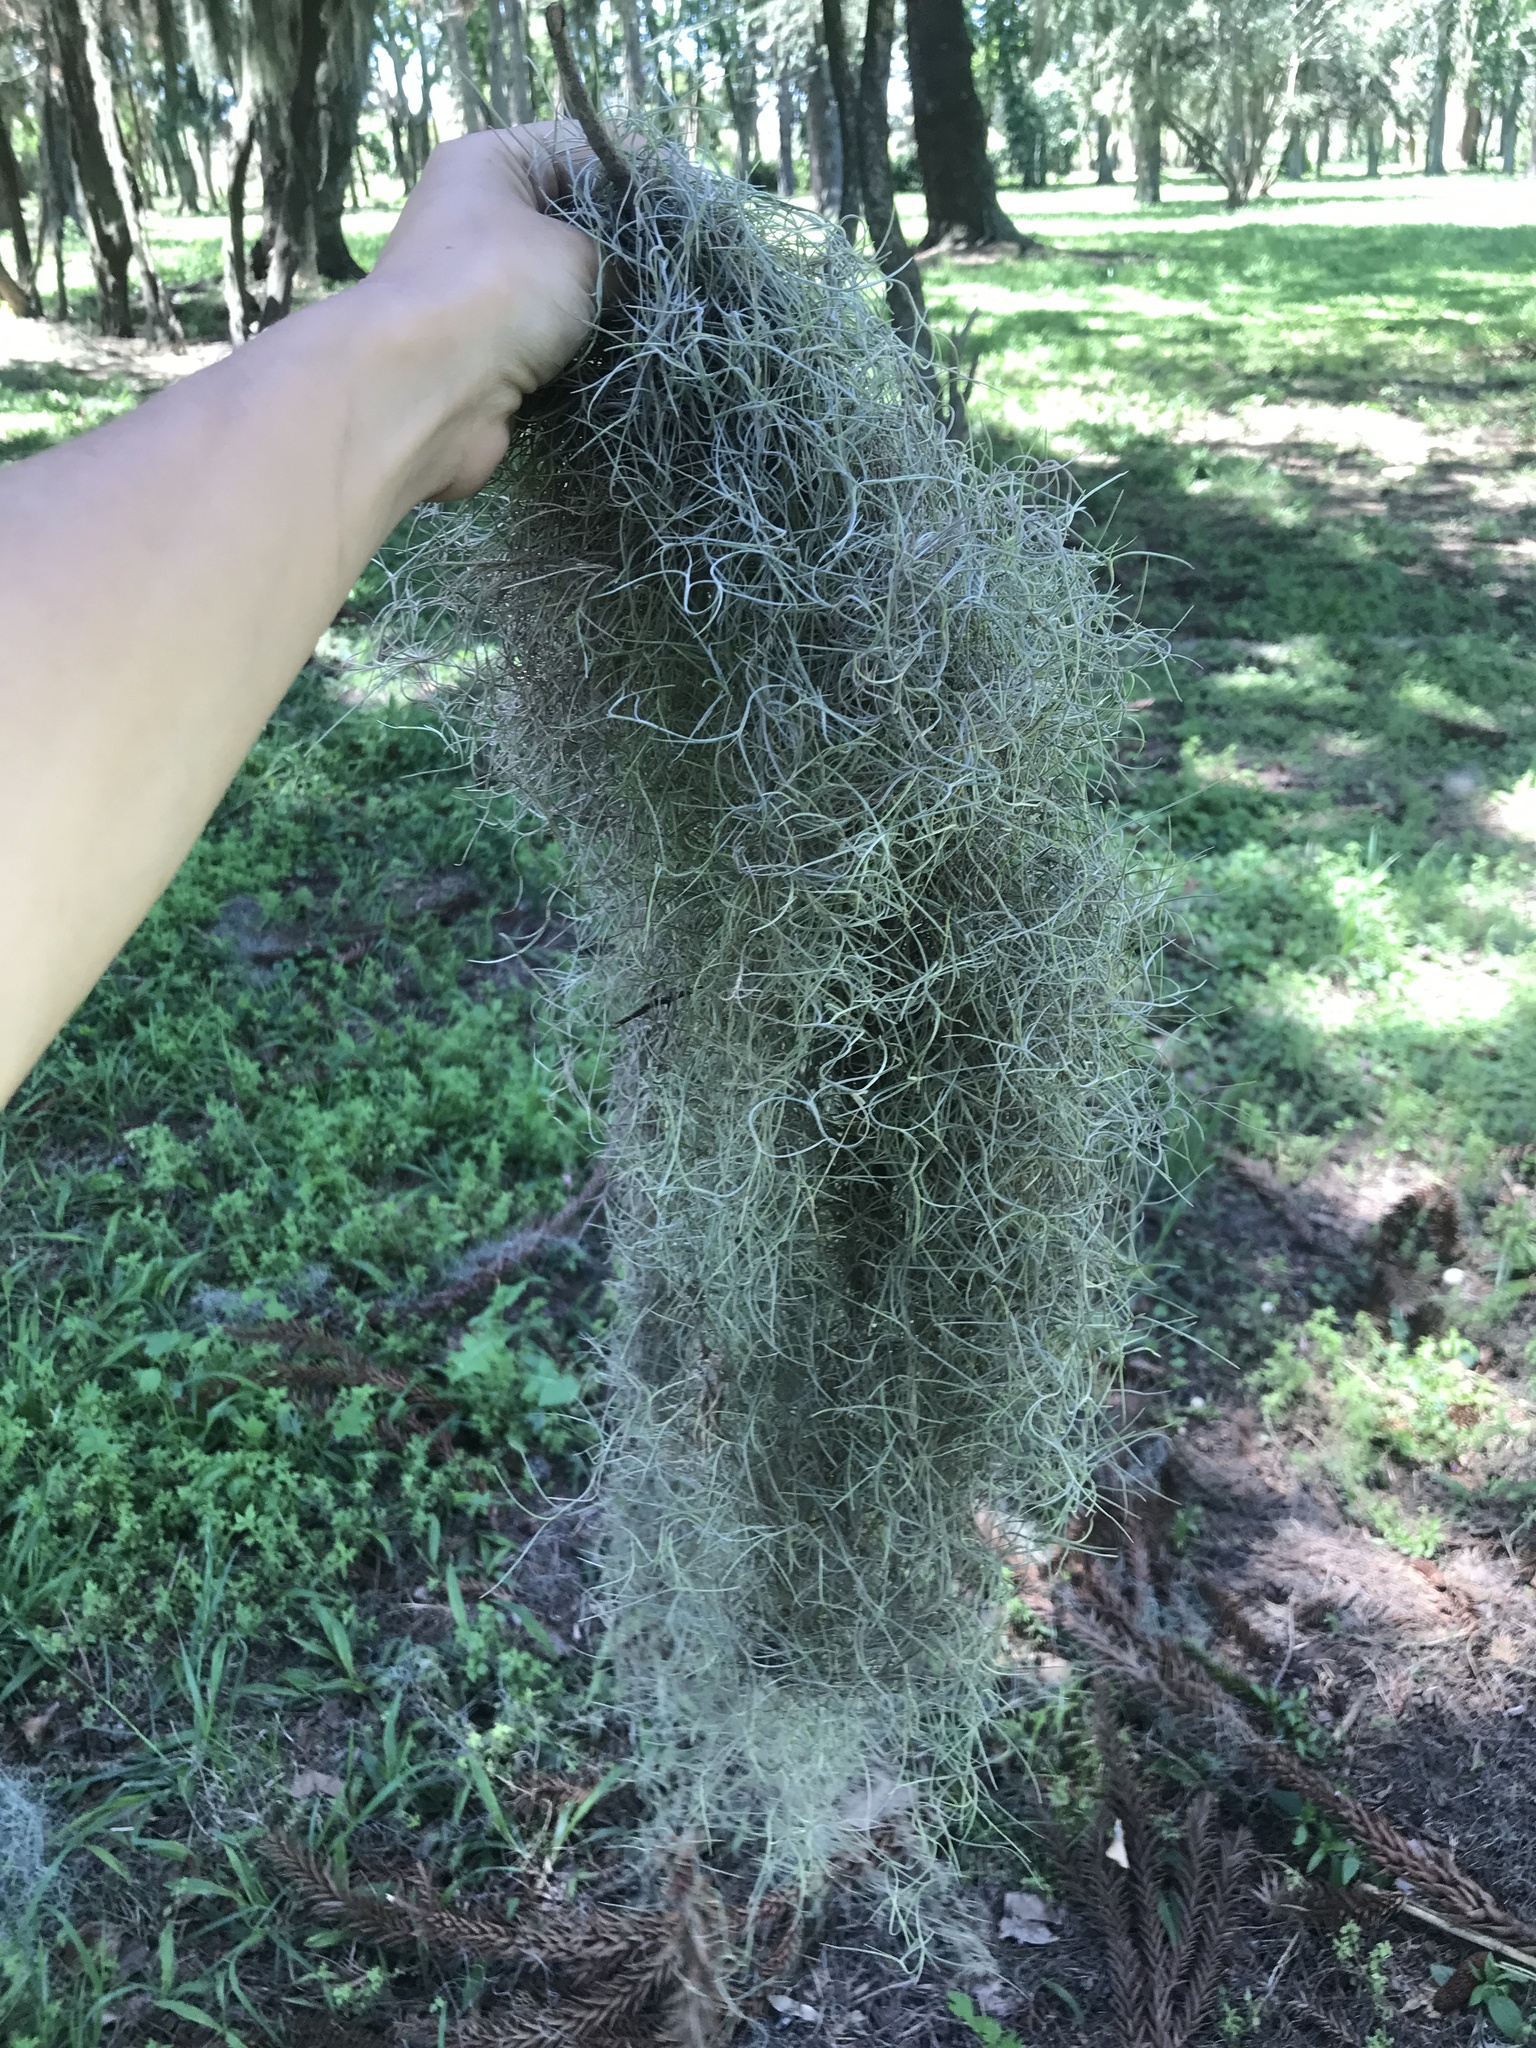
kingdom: Plantae
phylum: Tracheophyta
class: Liliopsida
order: Poales
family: Bromeliaceae
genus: Tillandsia
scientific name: Tillandsia usneoides
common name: Spanish moss
